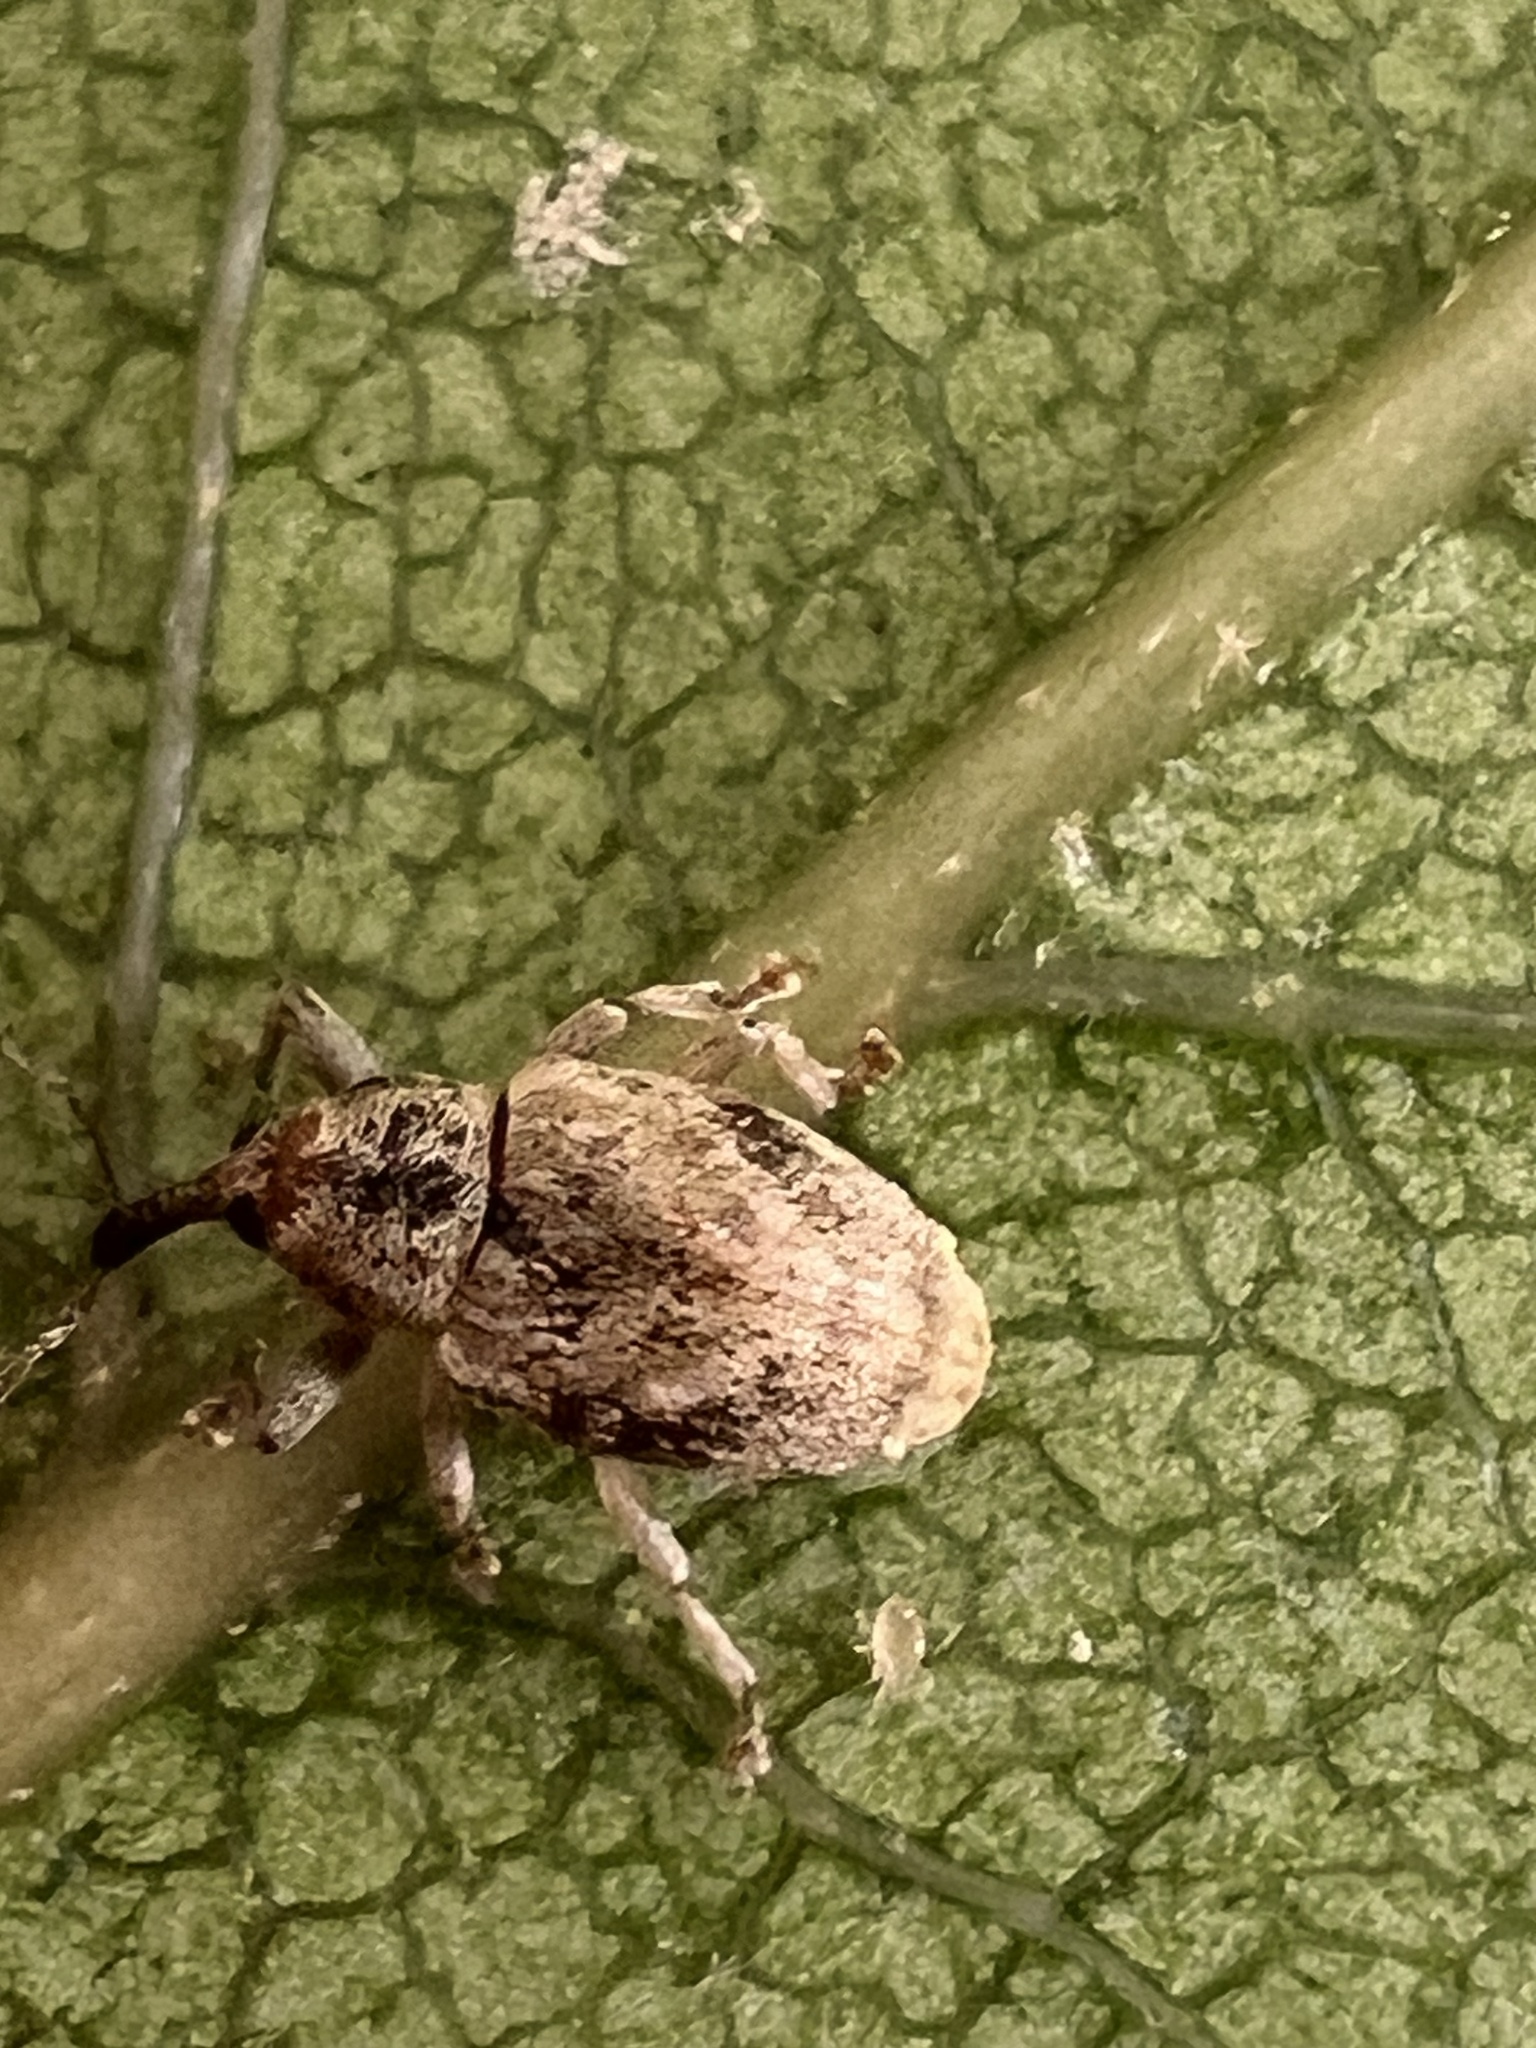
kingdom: Animalia
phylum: Arthropoda
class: Insecta
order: Coleoptera
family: Curculionidae
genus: Aneuma
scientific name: Aneuma compta
